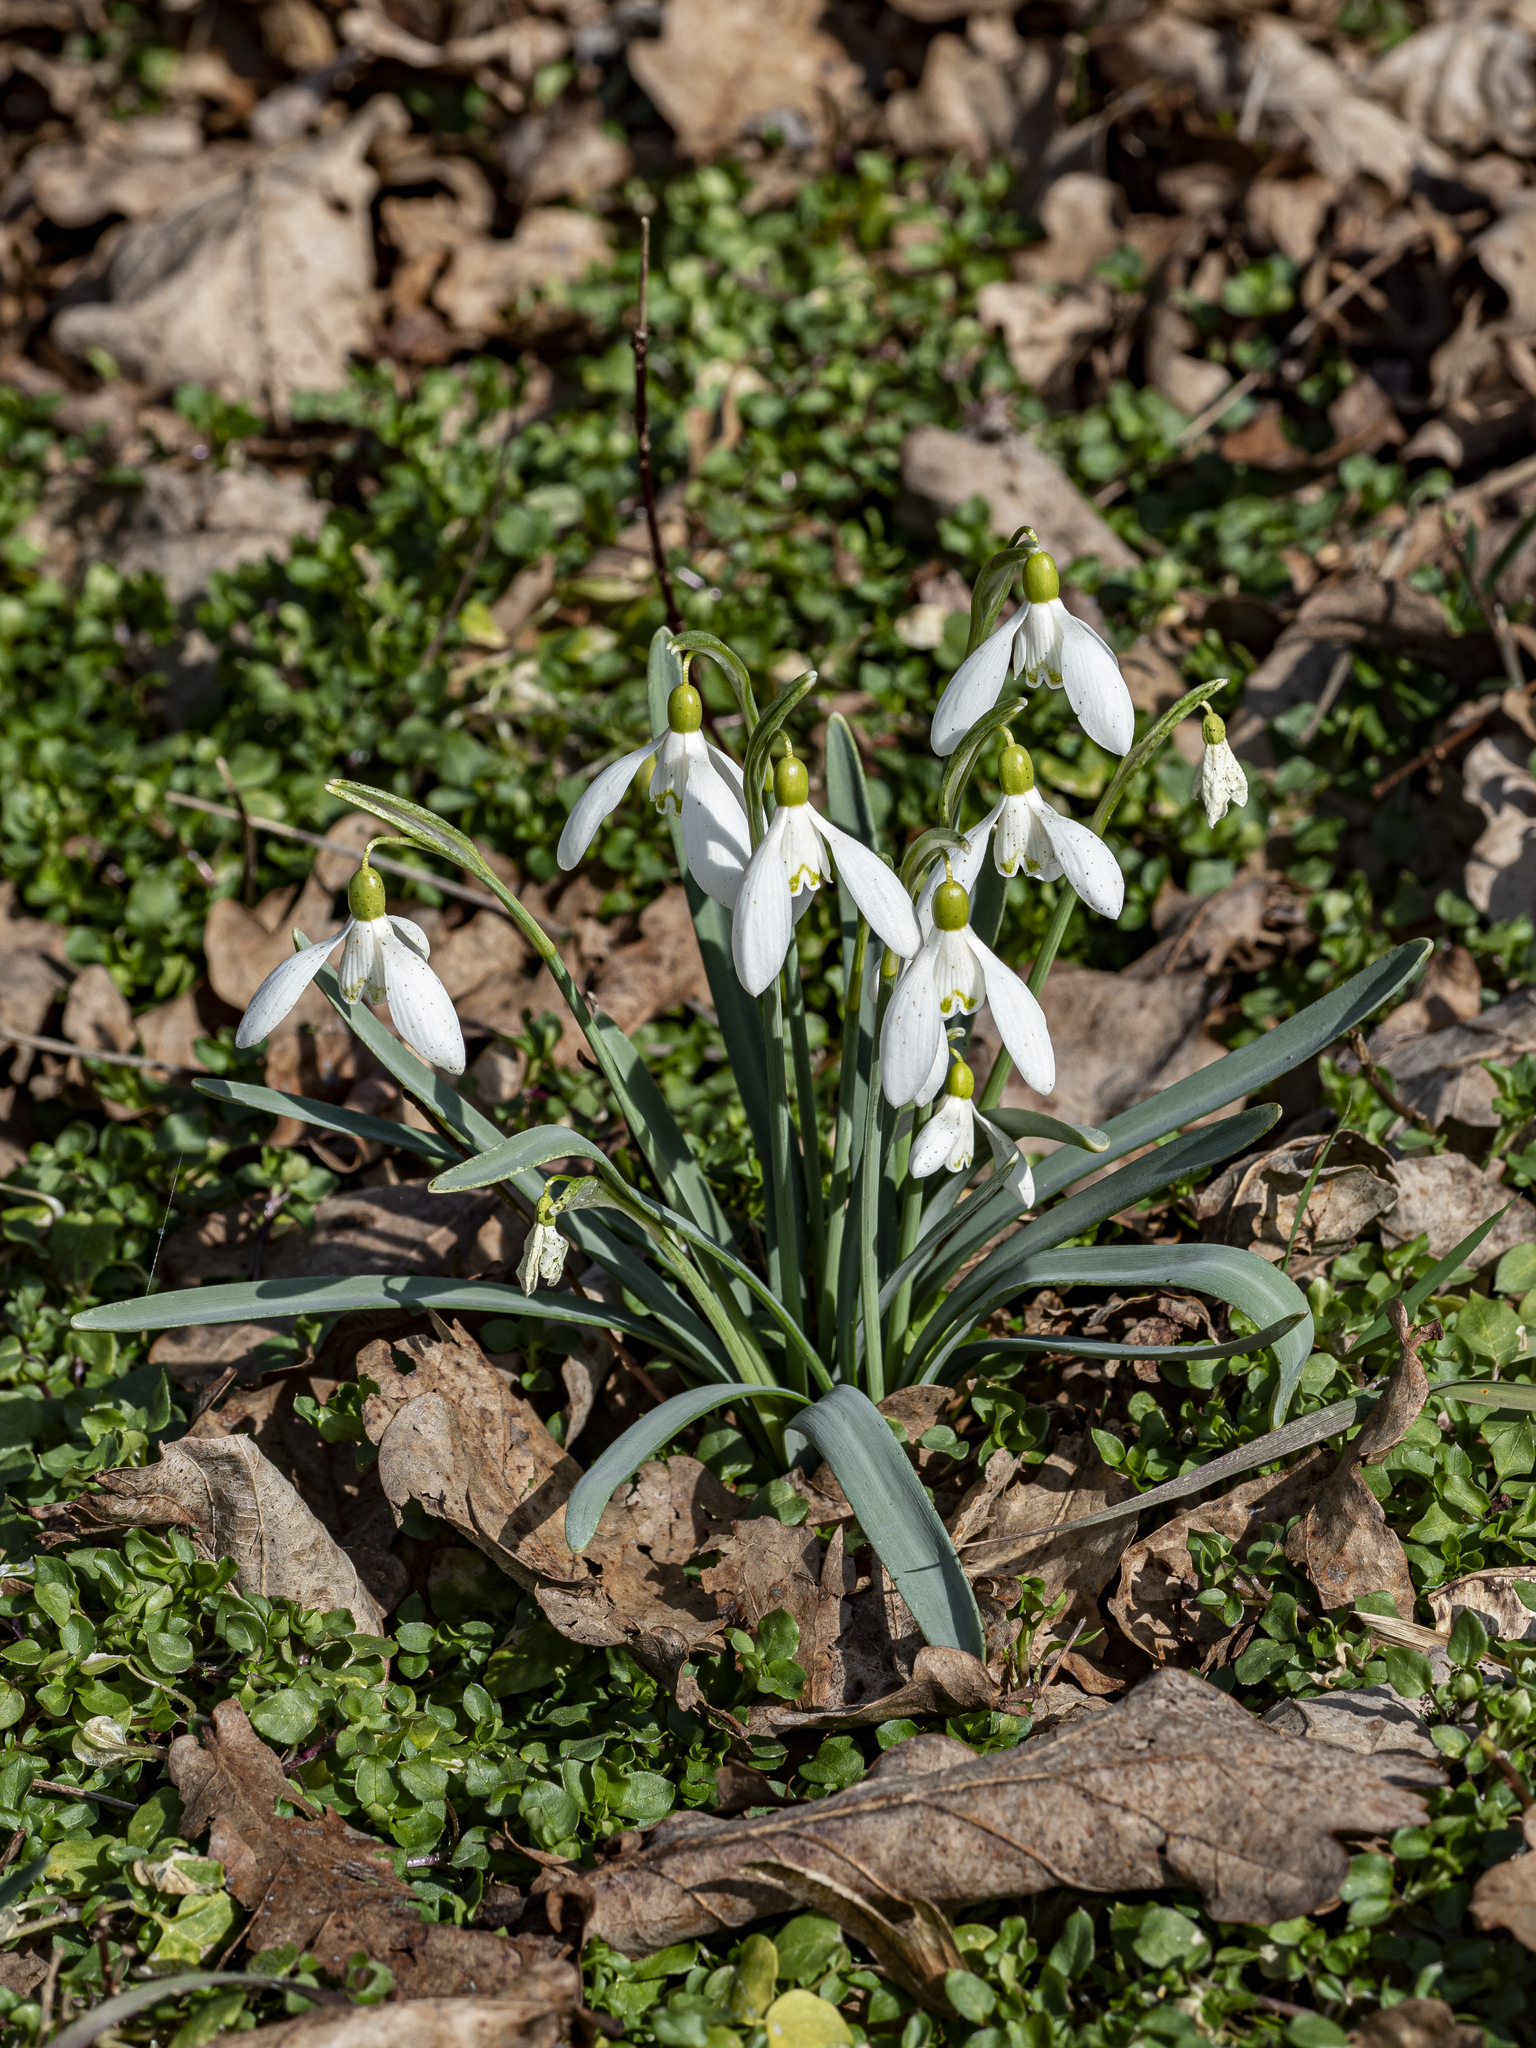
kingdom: Plantae
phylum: Tracheophyta
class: Liliopsida
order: Asparagales
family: Amaryllidaceae
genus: Galanthus
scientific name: Galanthus nivalis
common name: Snowdrop
